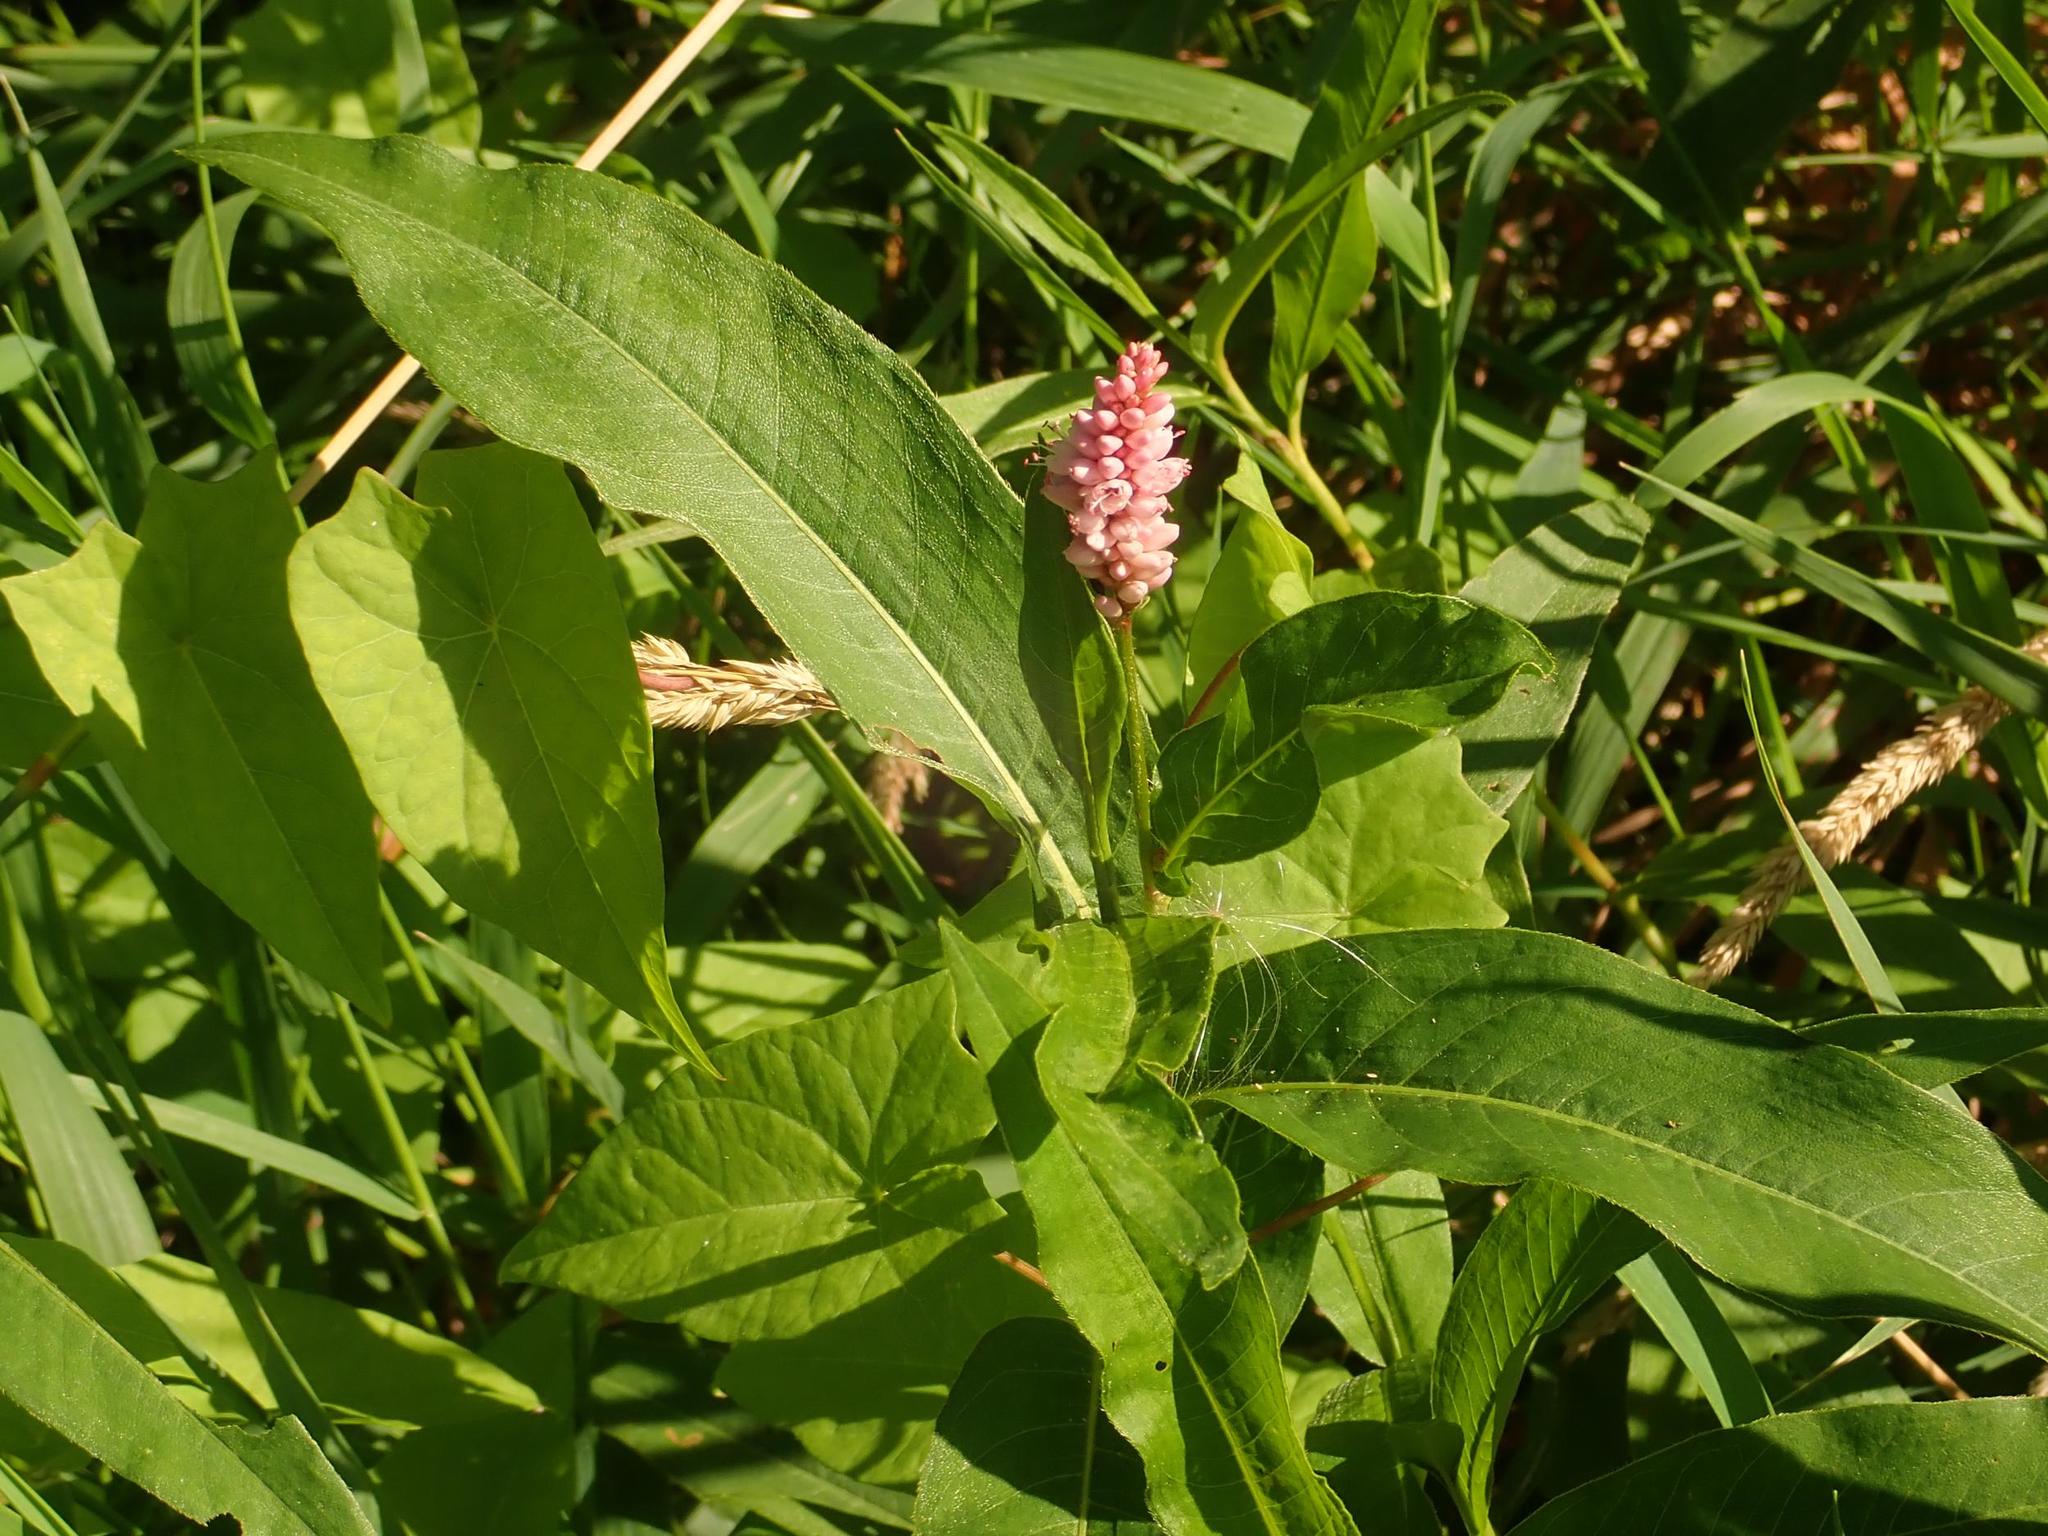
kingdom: Plantae
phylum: Tracheophyta
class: Magnoliopsida
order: Caryophyllales
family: Polygonaceae
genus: Persicaria
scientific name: Persicaria amphibia
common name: Amphibious bistort
